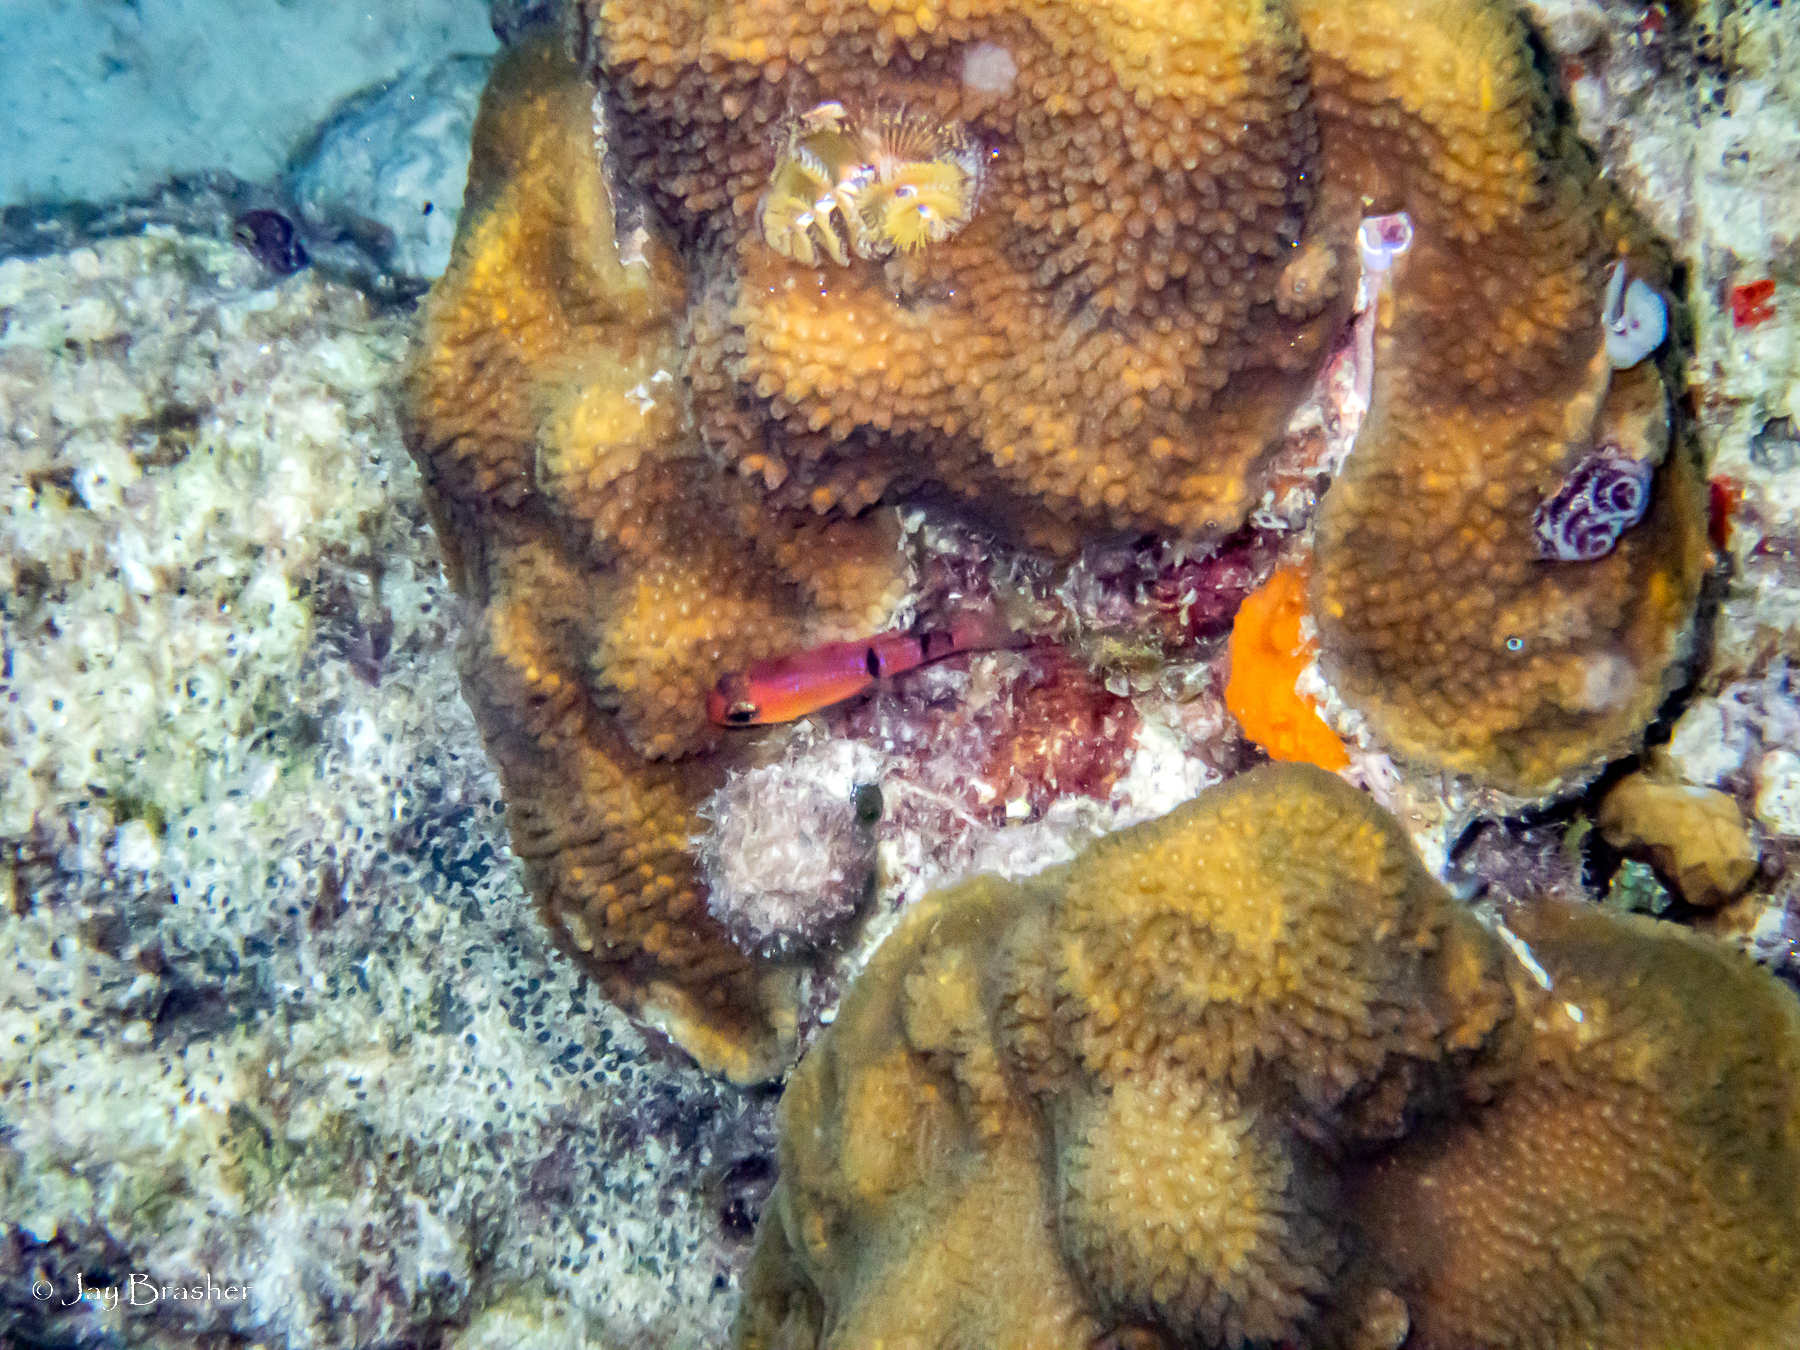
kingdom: Animalia
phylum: Annelida
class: Polychaeta
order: Sabellida
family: Serpulidae
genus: Spirobranchus
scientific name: Spirobranchus giganteus
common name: Christmas tree worm
